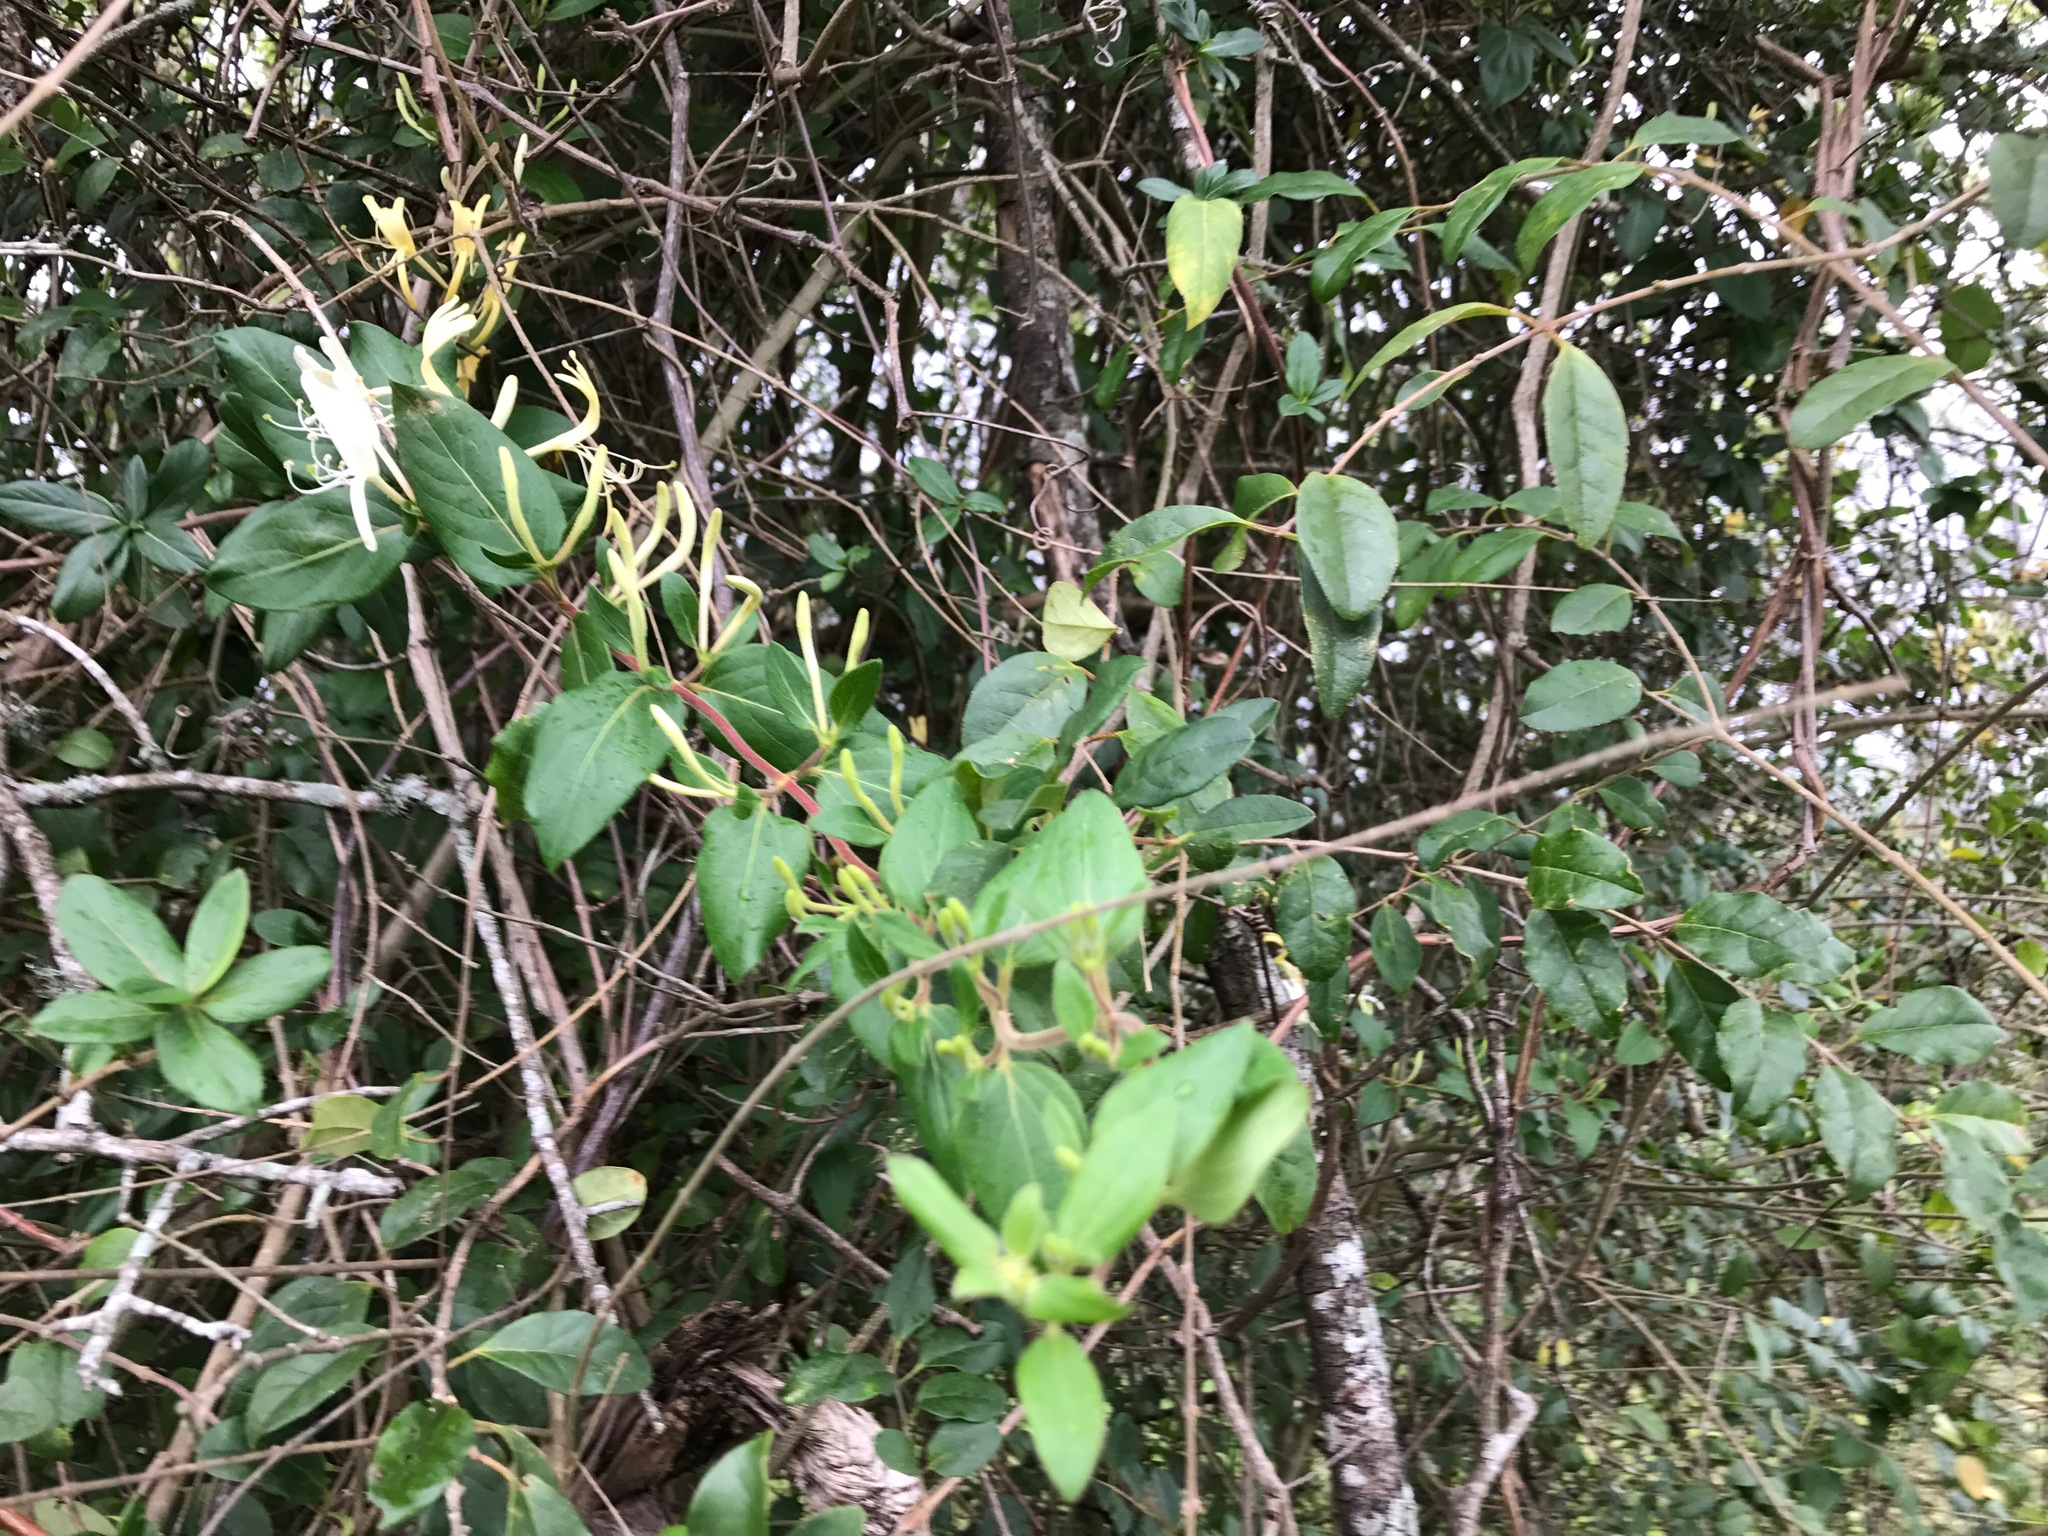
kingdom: Plantae
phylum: Tracheophyta
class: Magnoliopsida
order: Dipsacales
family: Caprifoliaceae
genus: Lonicera
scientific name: Lonicera japonica
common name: Japanese honeysuckle
